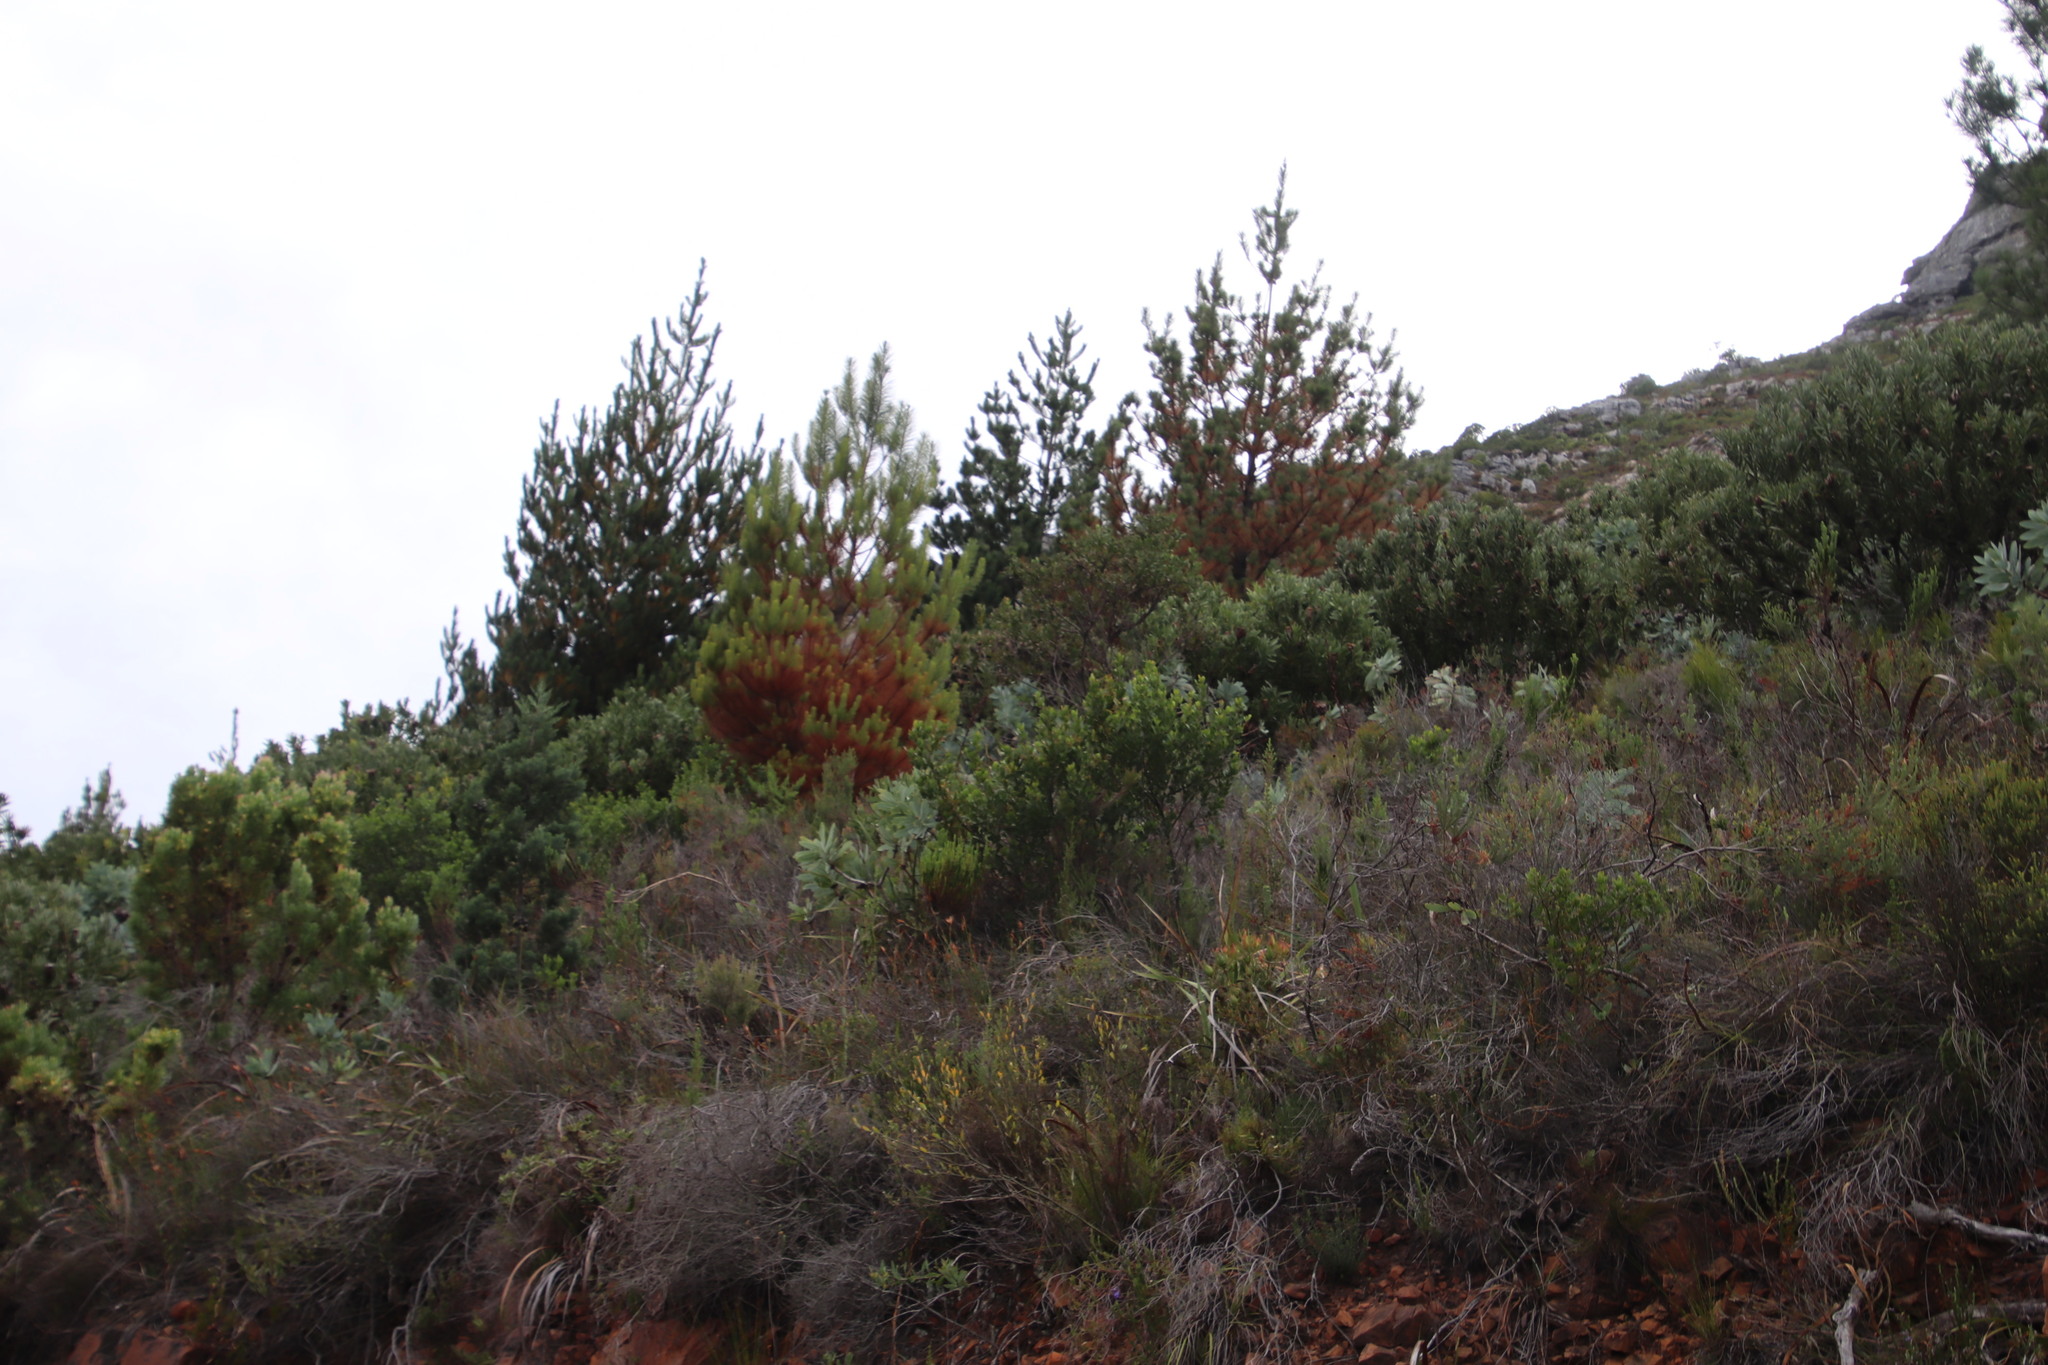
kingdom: Plantae
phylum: Tracheophyta
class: Pinopsida
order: Pinales
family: Pinaceae
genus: Pinus
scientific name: Pinus radiata
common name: Monterey pine
